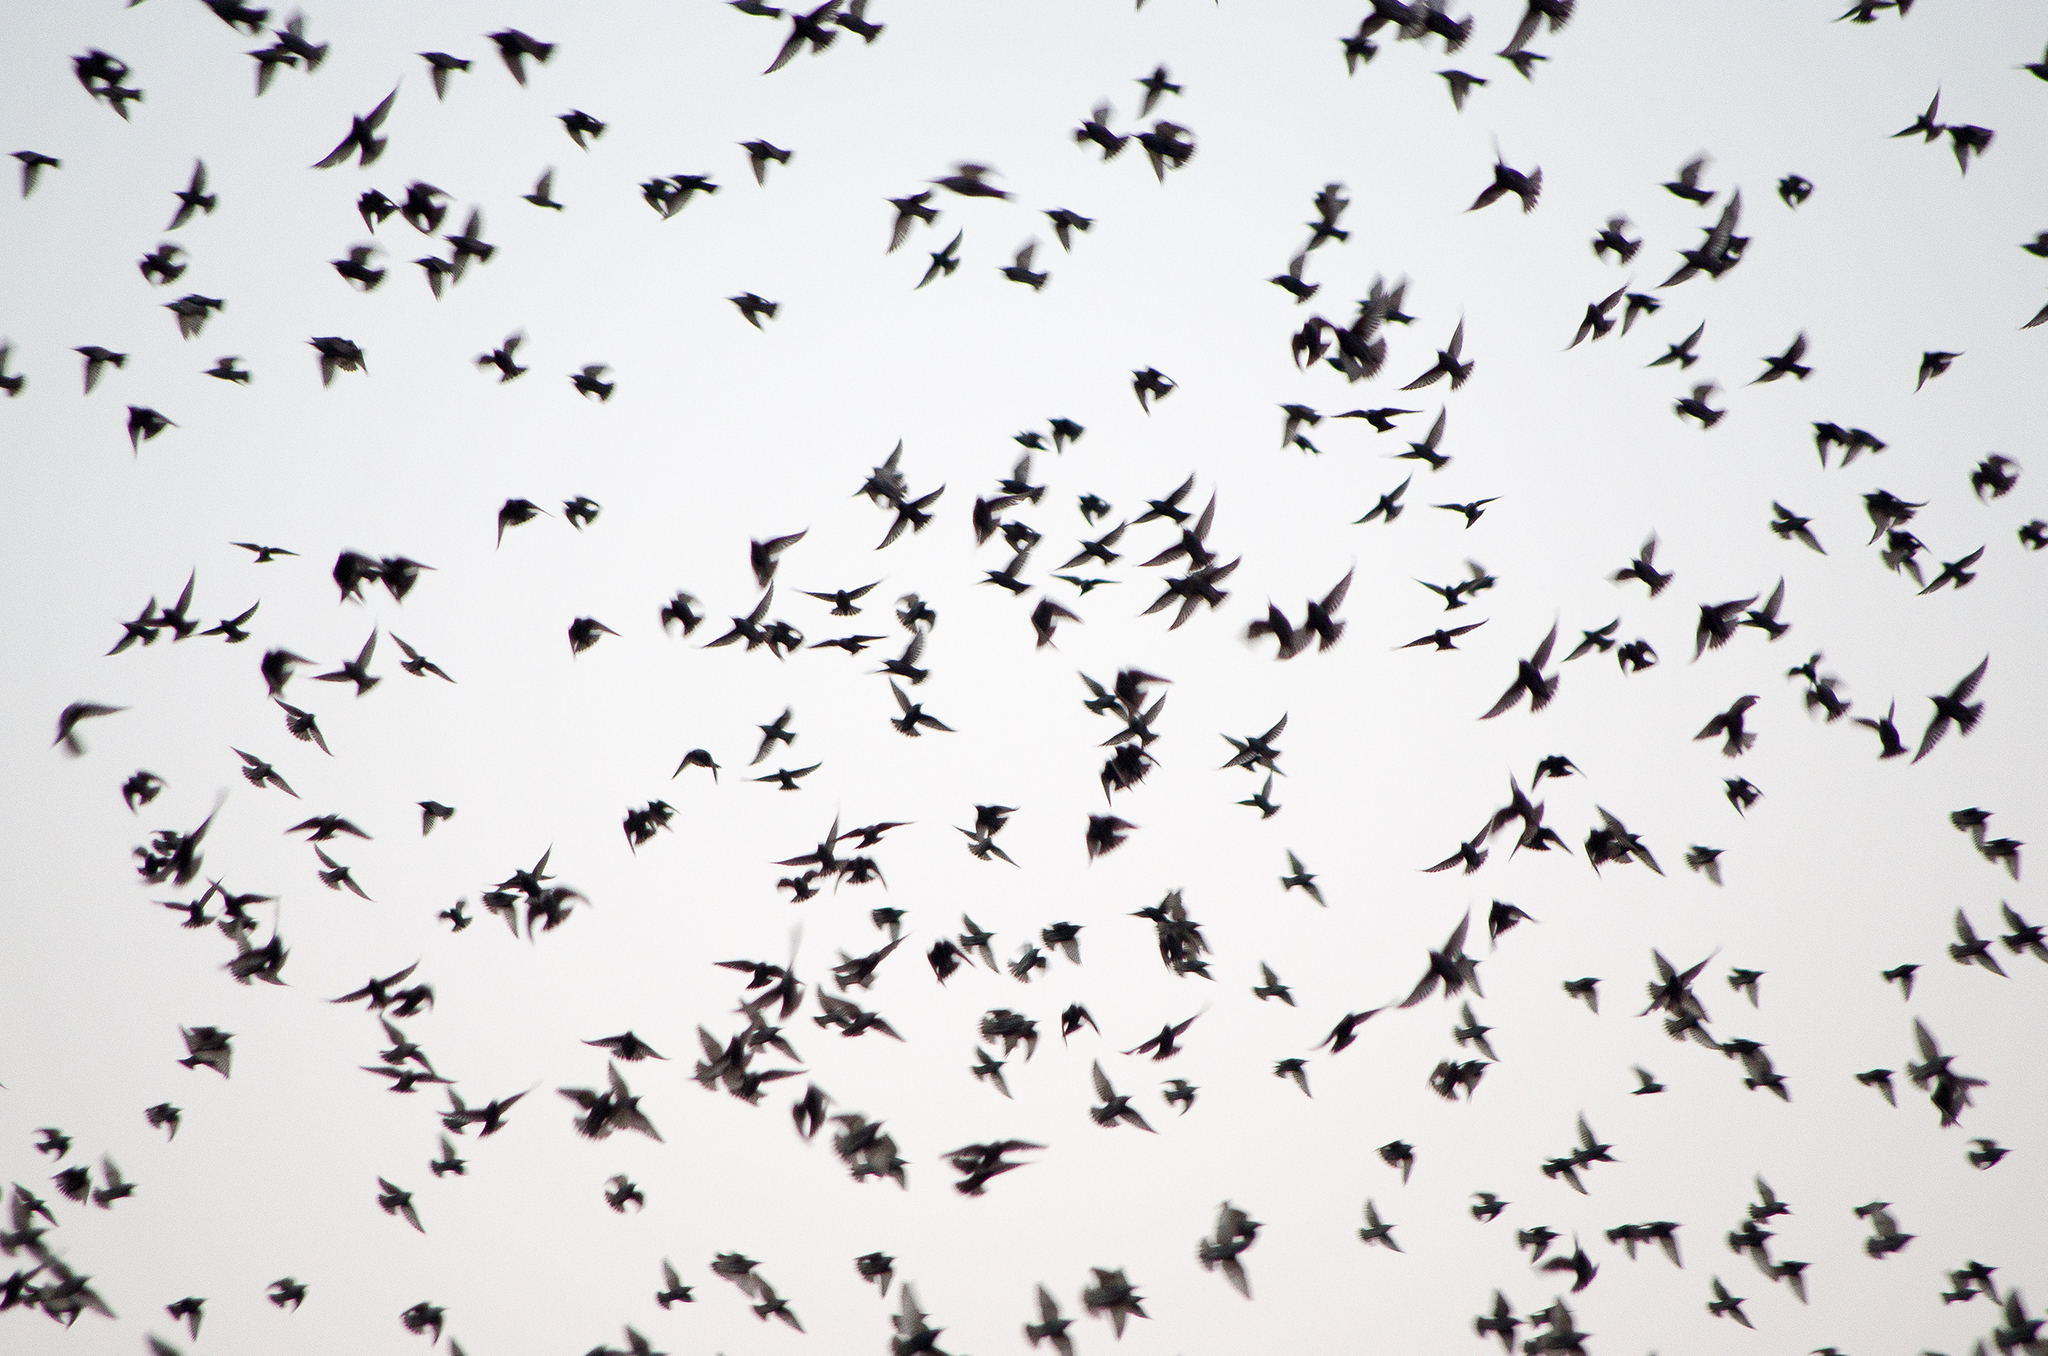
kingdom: Animalia
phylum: Chordata
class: Aves
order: Passeriformes
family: Sturnidae
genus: Sturnus
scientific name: Sturnus vulgaris
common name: Common starling
